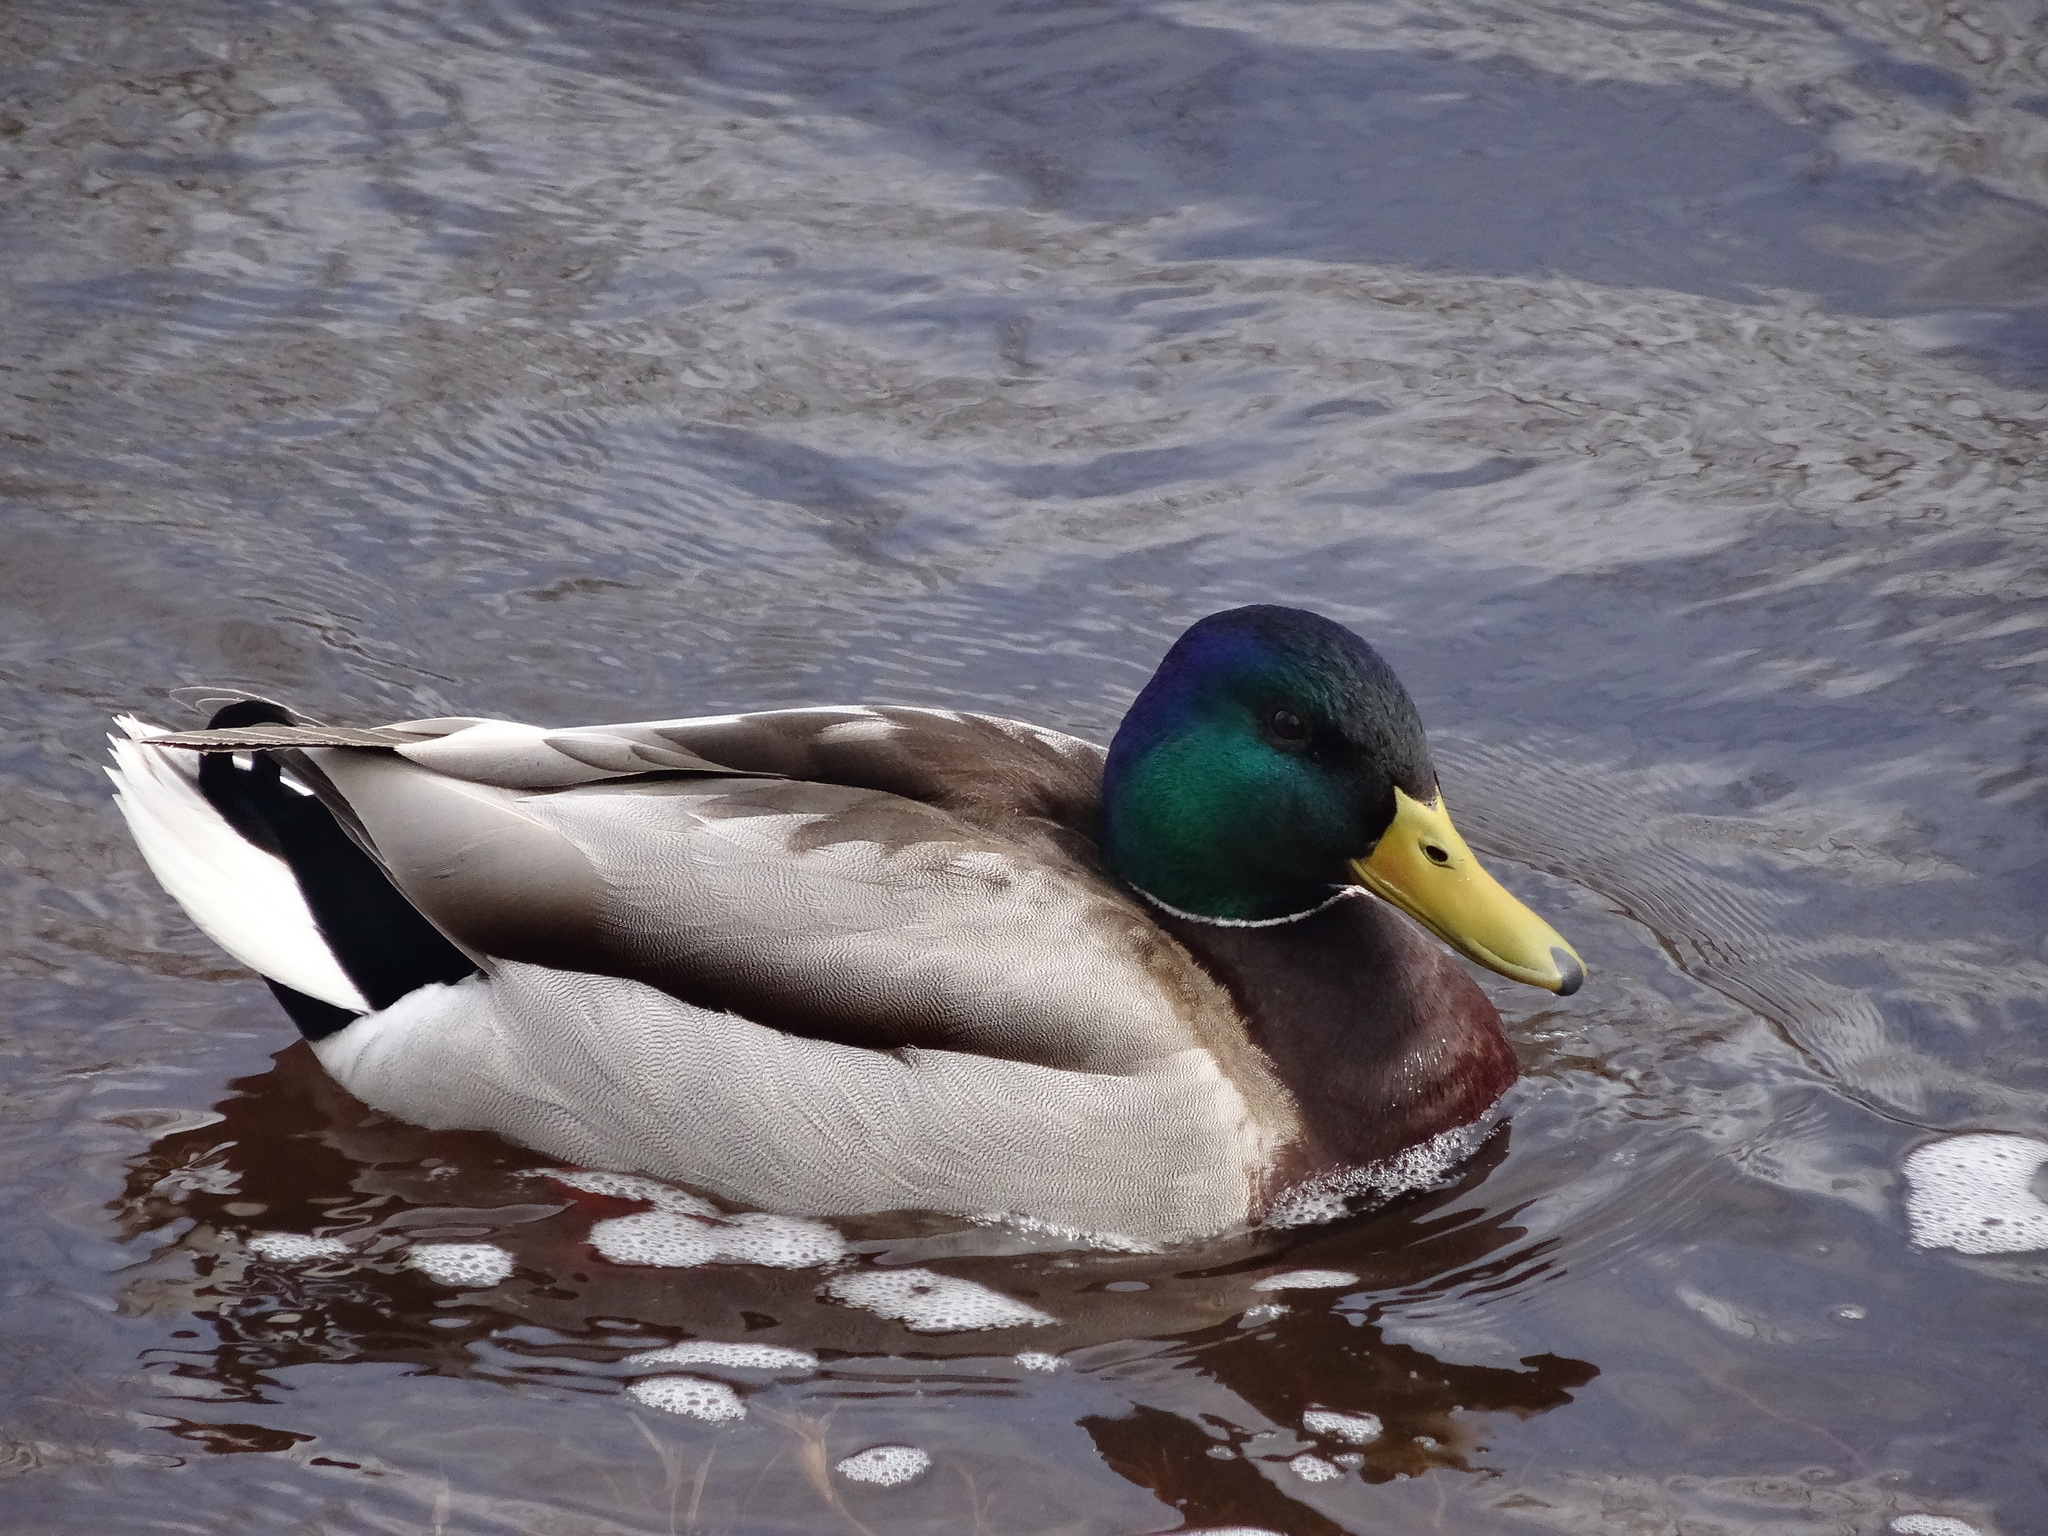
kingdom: Animalia
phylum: Chordata
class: Aves
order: Anseriformes
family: Anatidae
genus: Anas
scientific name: Anas platyrhynchos
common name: Mallard
